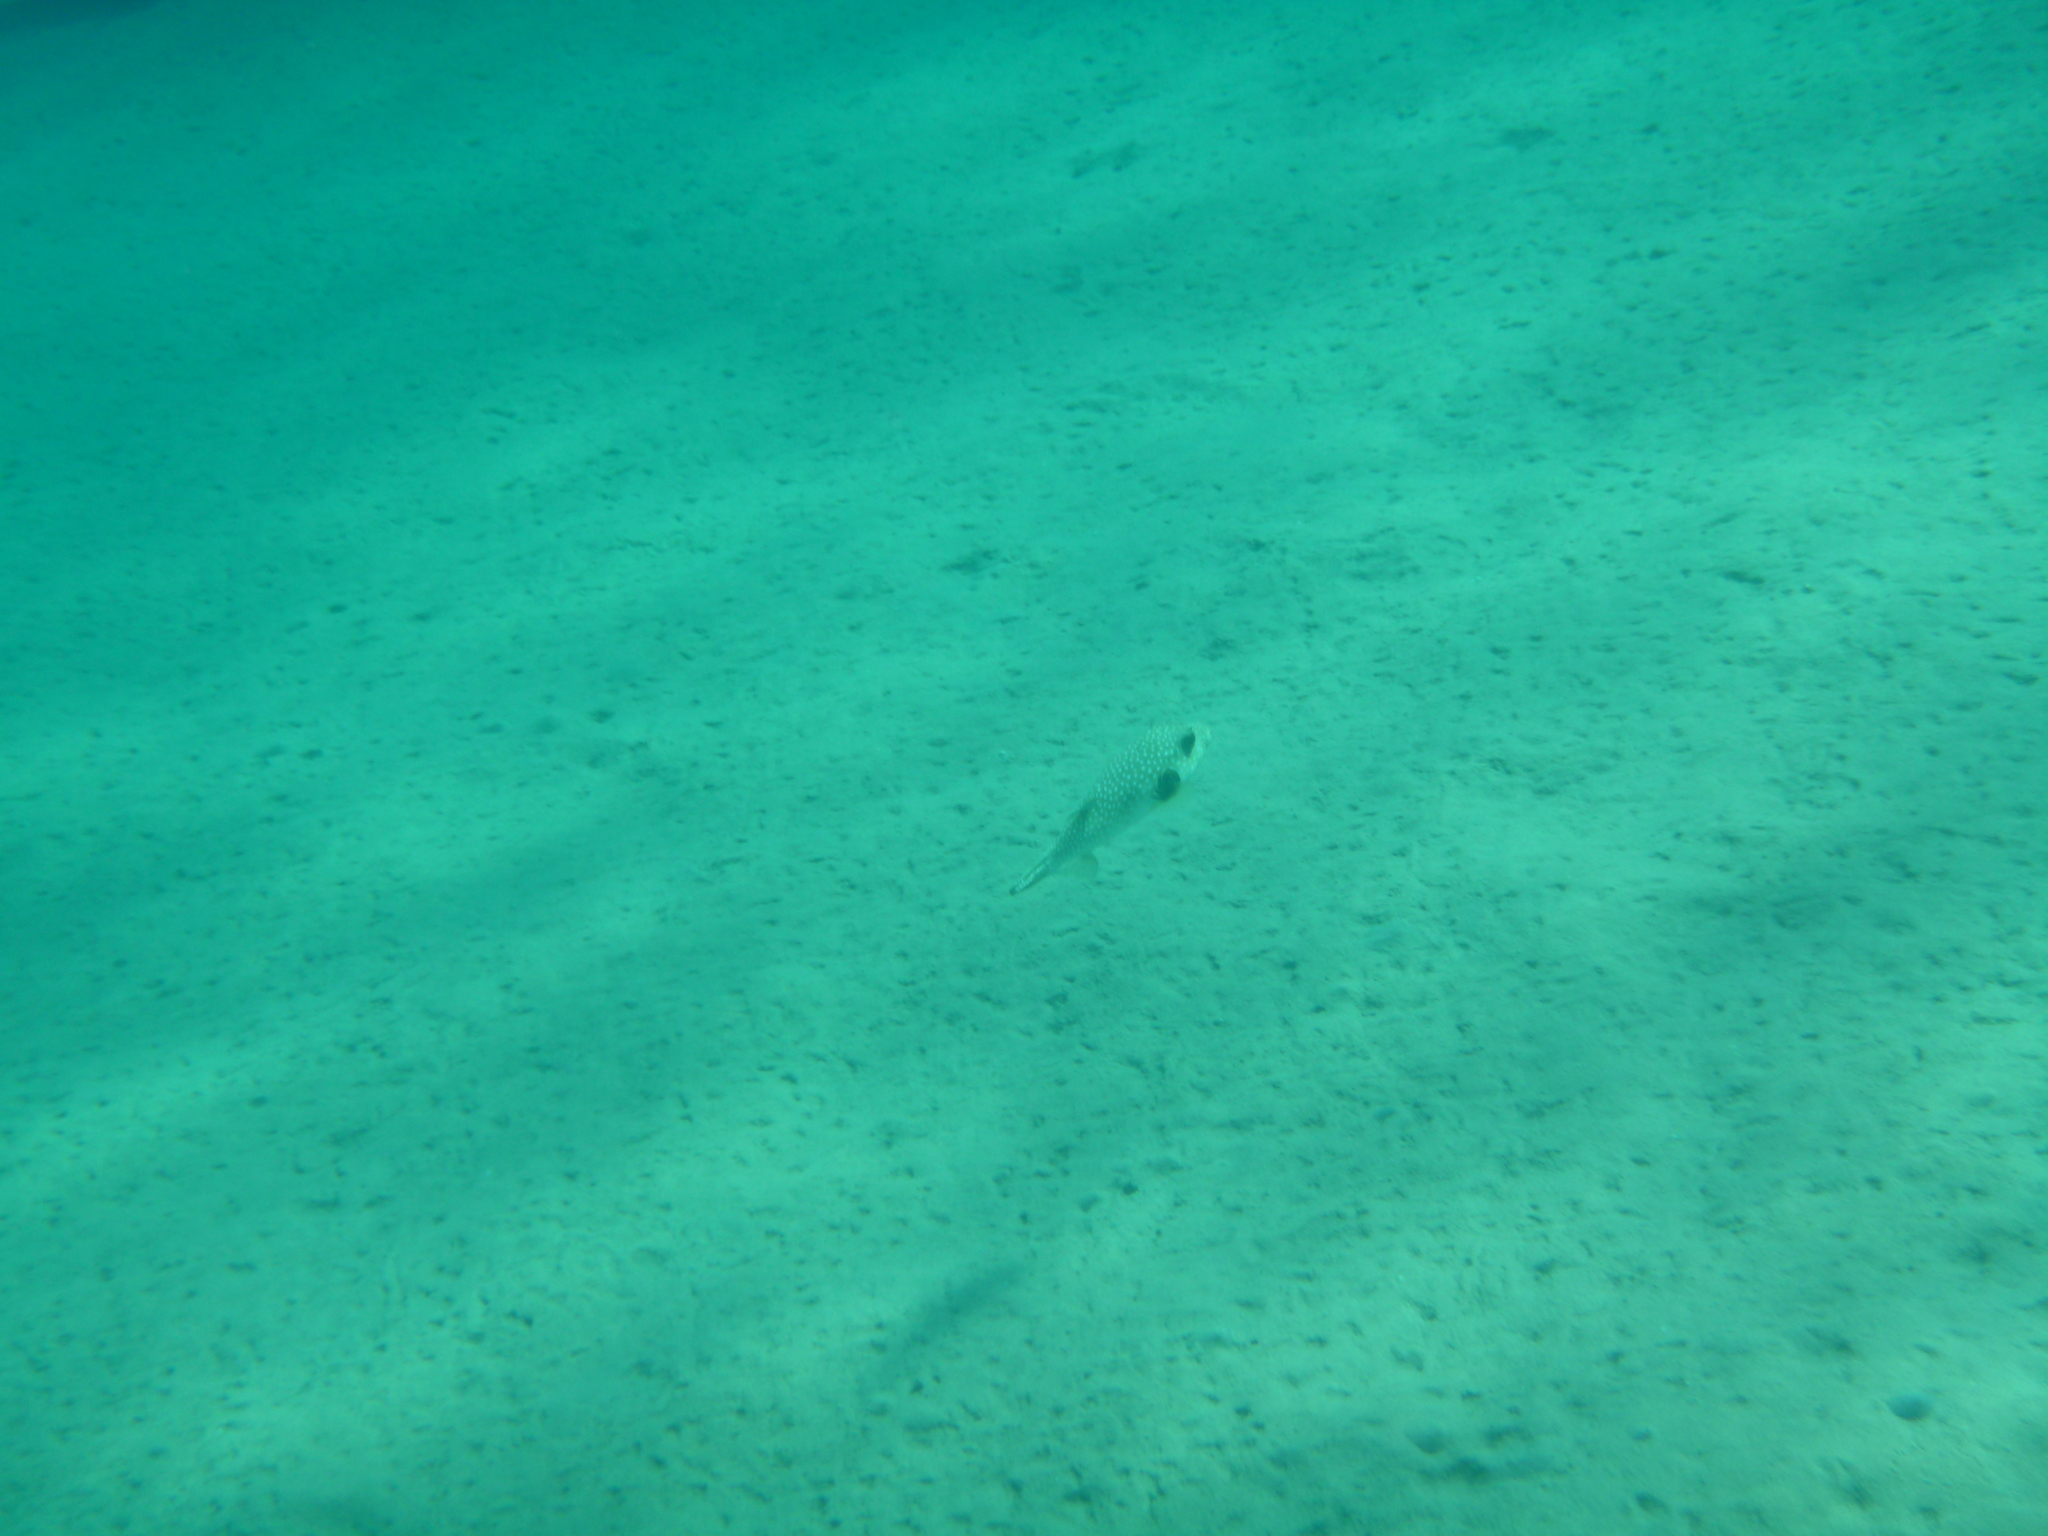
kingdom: Animalia
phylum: Chordata
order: Tetraodontiformes
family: Tetraodontidae
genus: Arothron
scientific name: Arothron hispidus
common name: Stripebelly puffer
